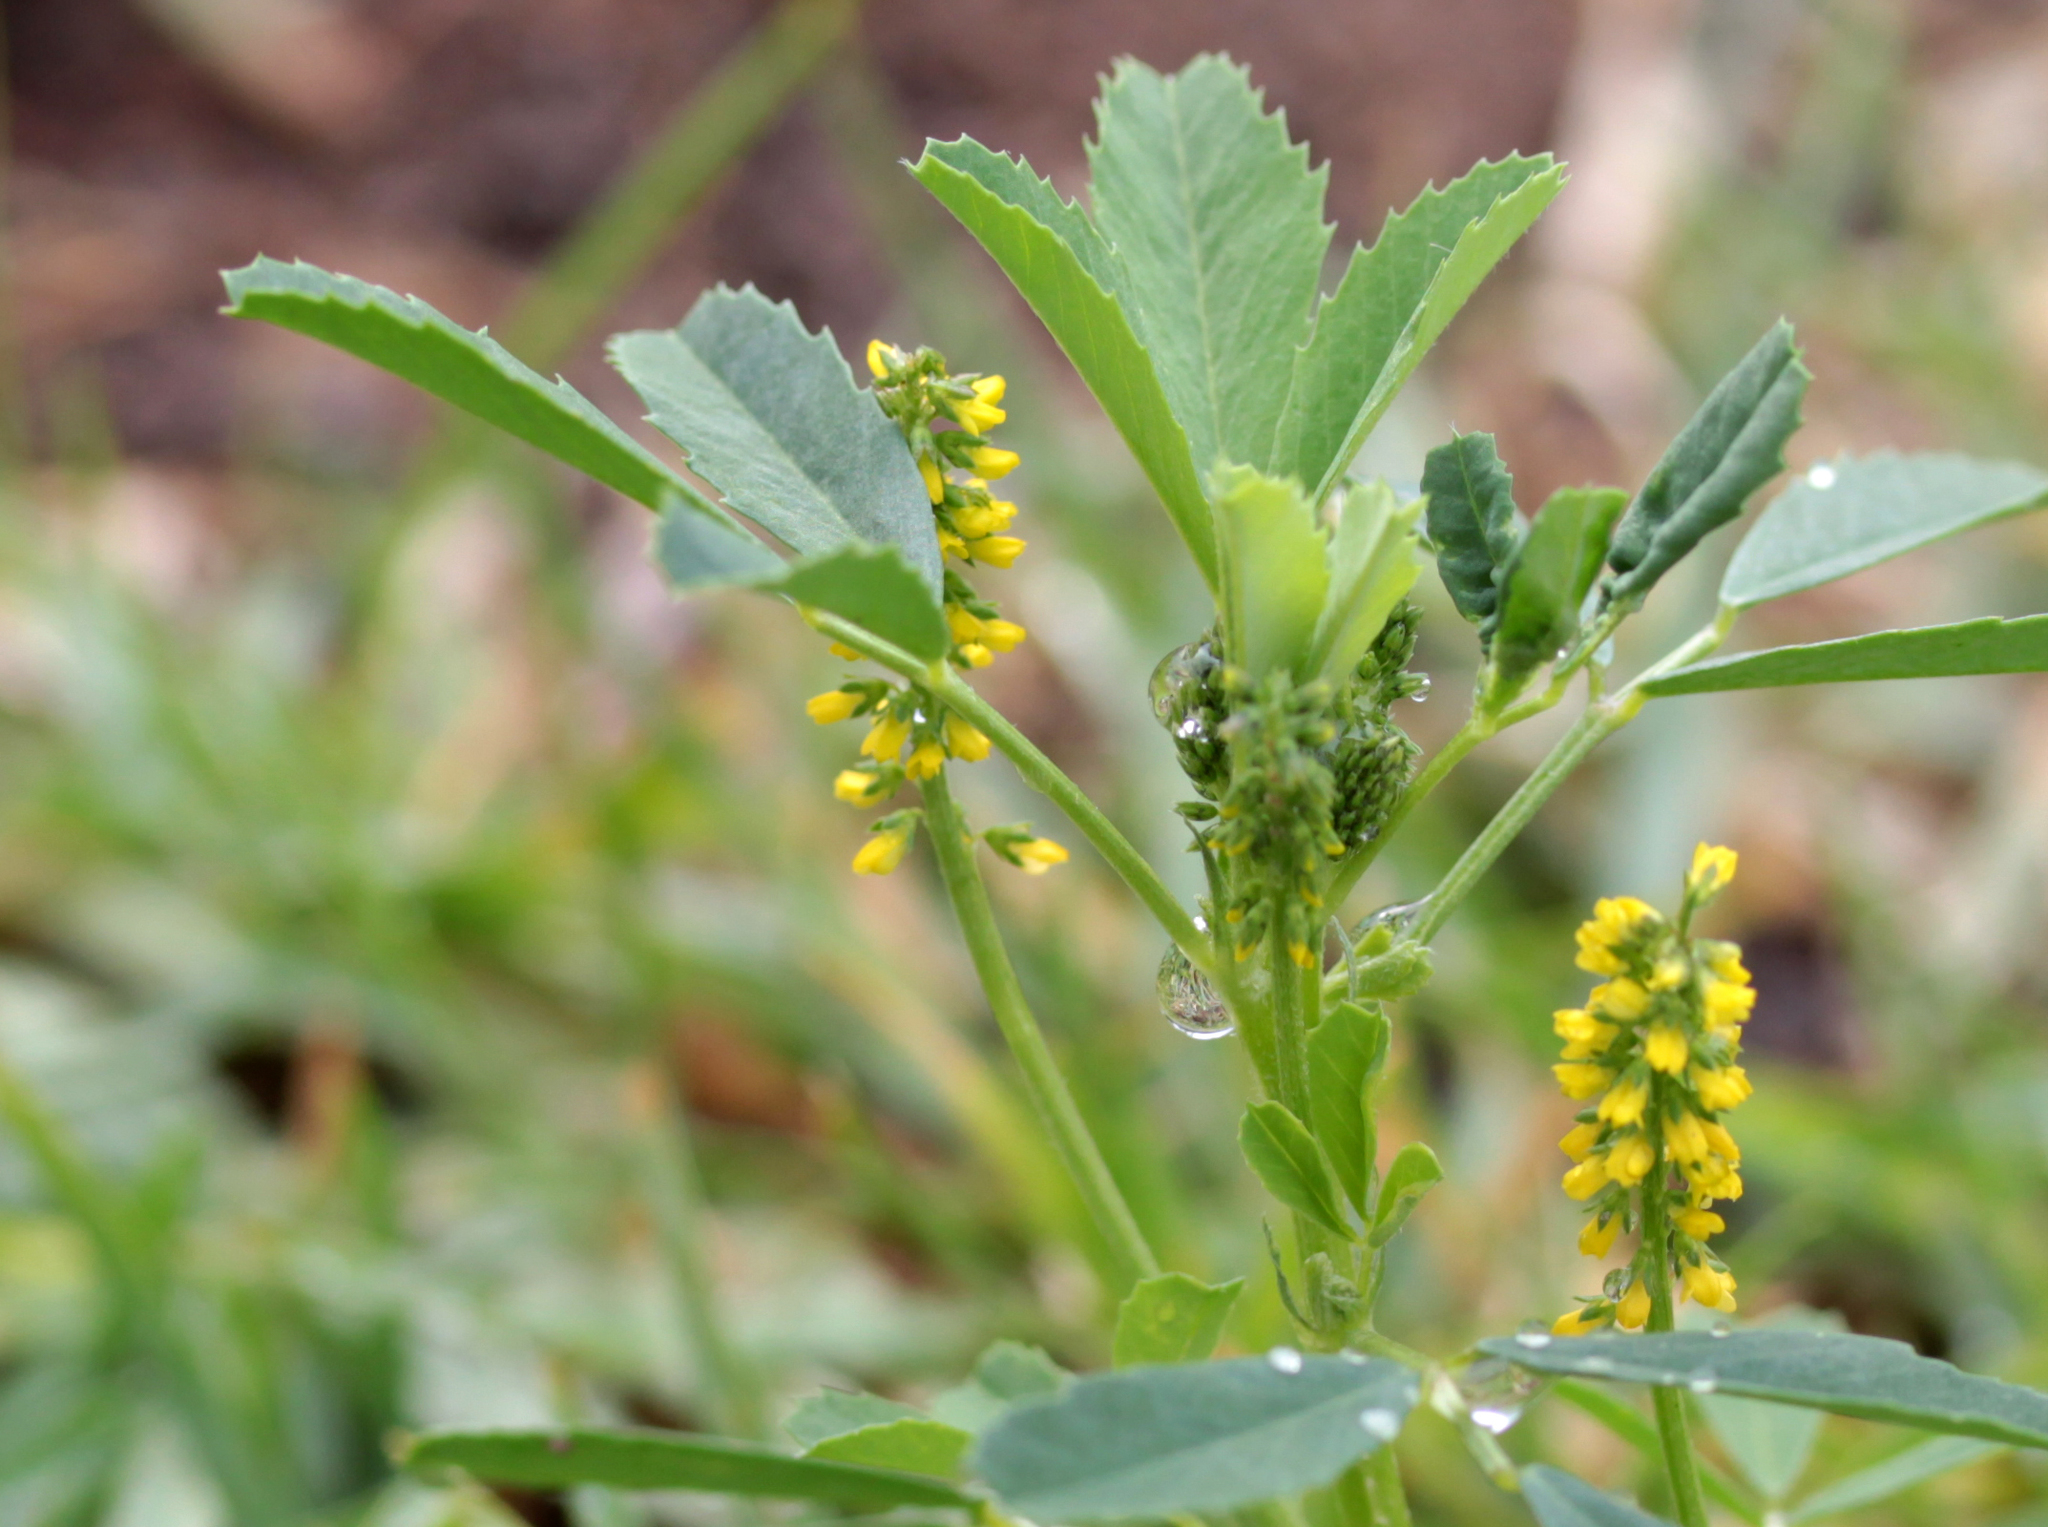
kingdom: Plantae
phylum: Tracheophyta
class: Magnoliopsida
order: Fabales
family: Fabaceae
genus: Melilotus
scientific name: Melilotus indicus
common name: Small melilot
